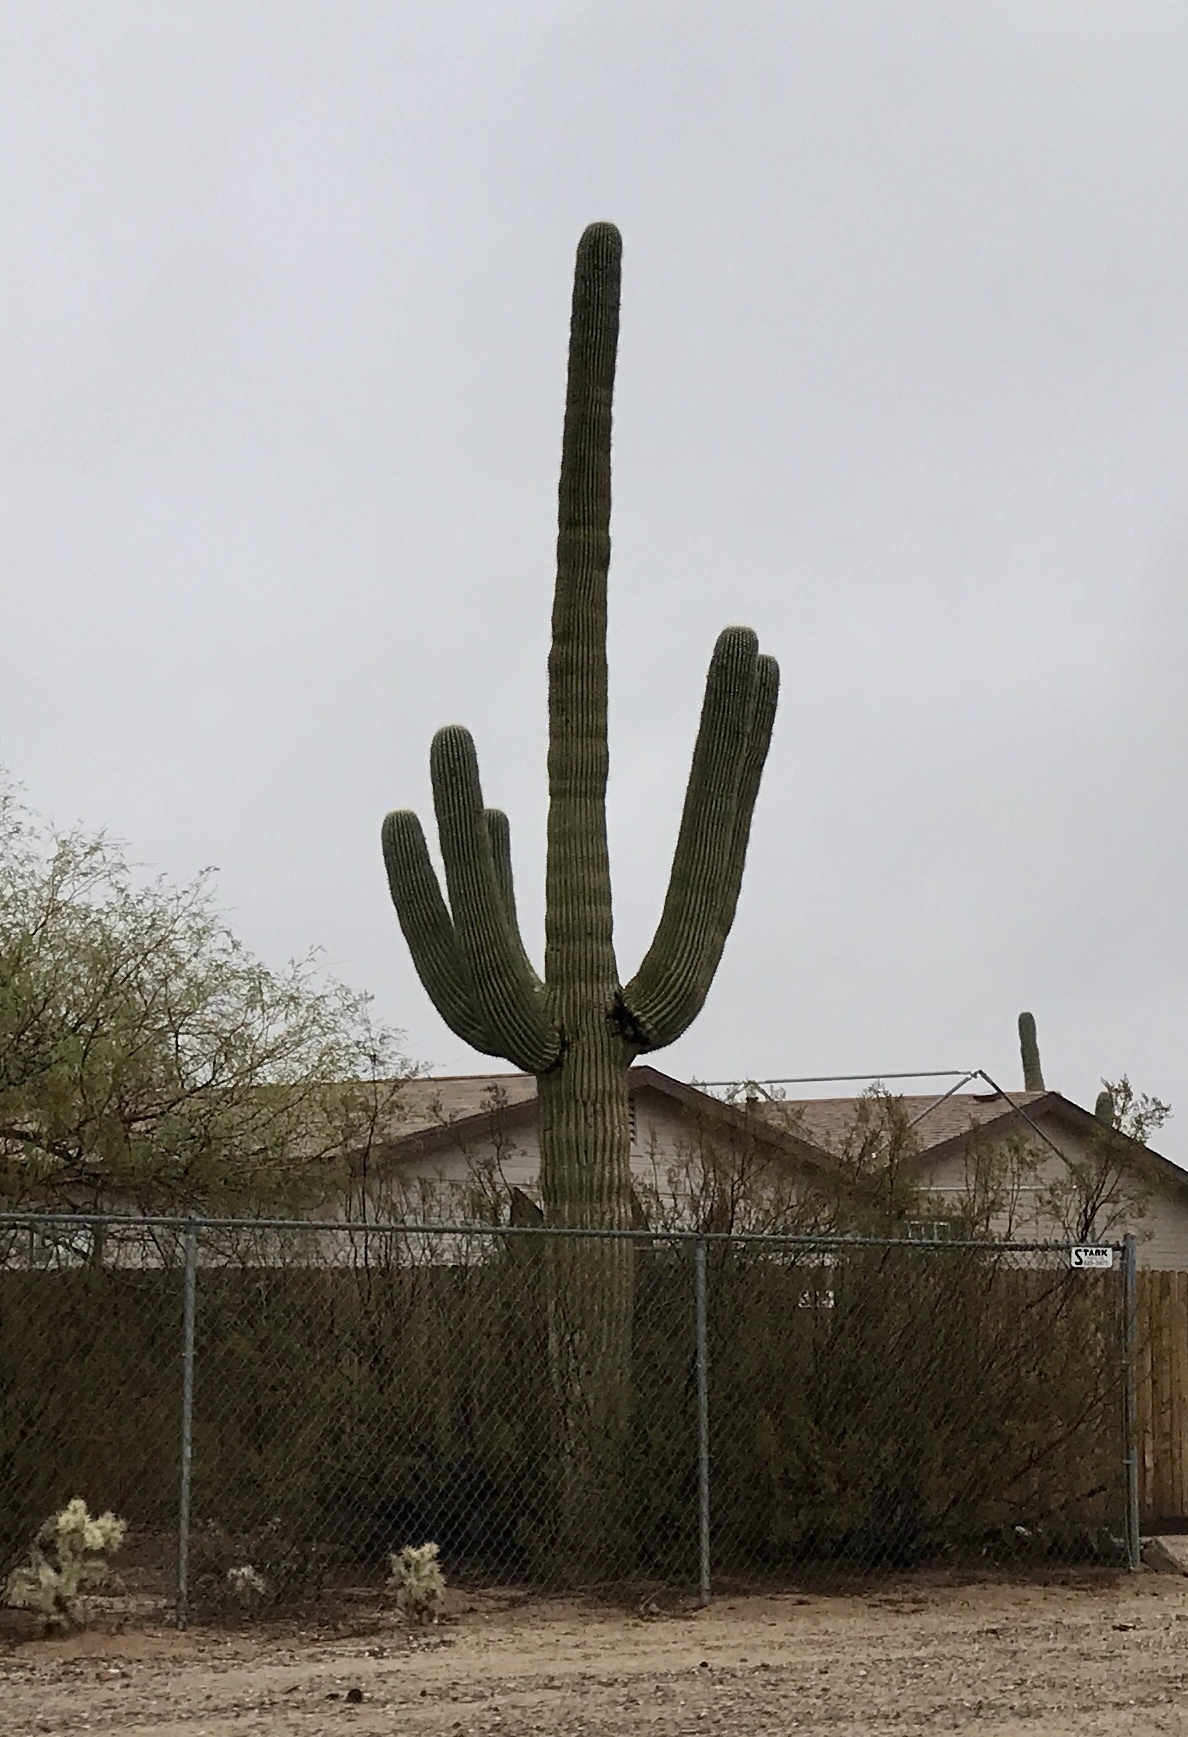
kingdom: Plantae
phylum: Tracheophyta
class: Magnoliopsida
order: Caryophyllales
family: Cactaceae
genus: Carnegiea
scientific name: Carnegiea gigantea
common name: Saguaro
